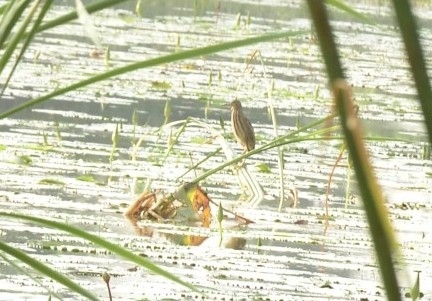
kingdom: Animalia
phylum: Chordata
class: Aves
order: Pelecaniformes
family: Ardeidae
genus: Ixobrychus
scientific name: Ixobrychus sinensis
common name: Yellow bittern
